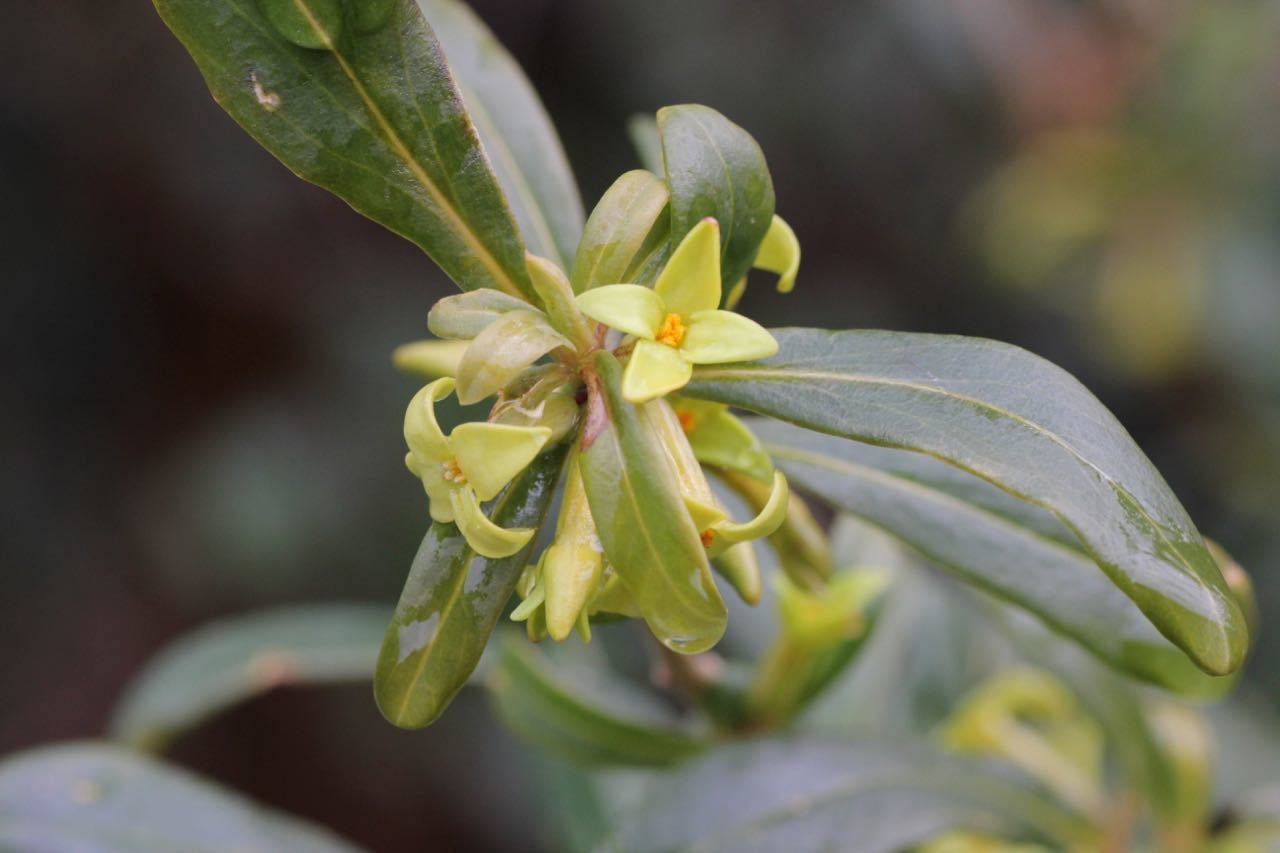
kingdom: Plantae
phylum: Tracheophyta
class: Magnoliopsida
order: Malvales
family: Thymelaeaceae
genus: Daphne
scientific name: Daphne pseudomezereum
